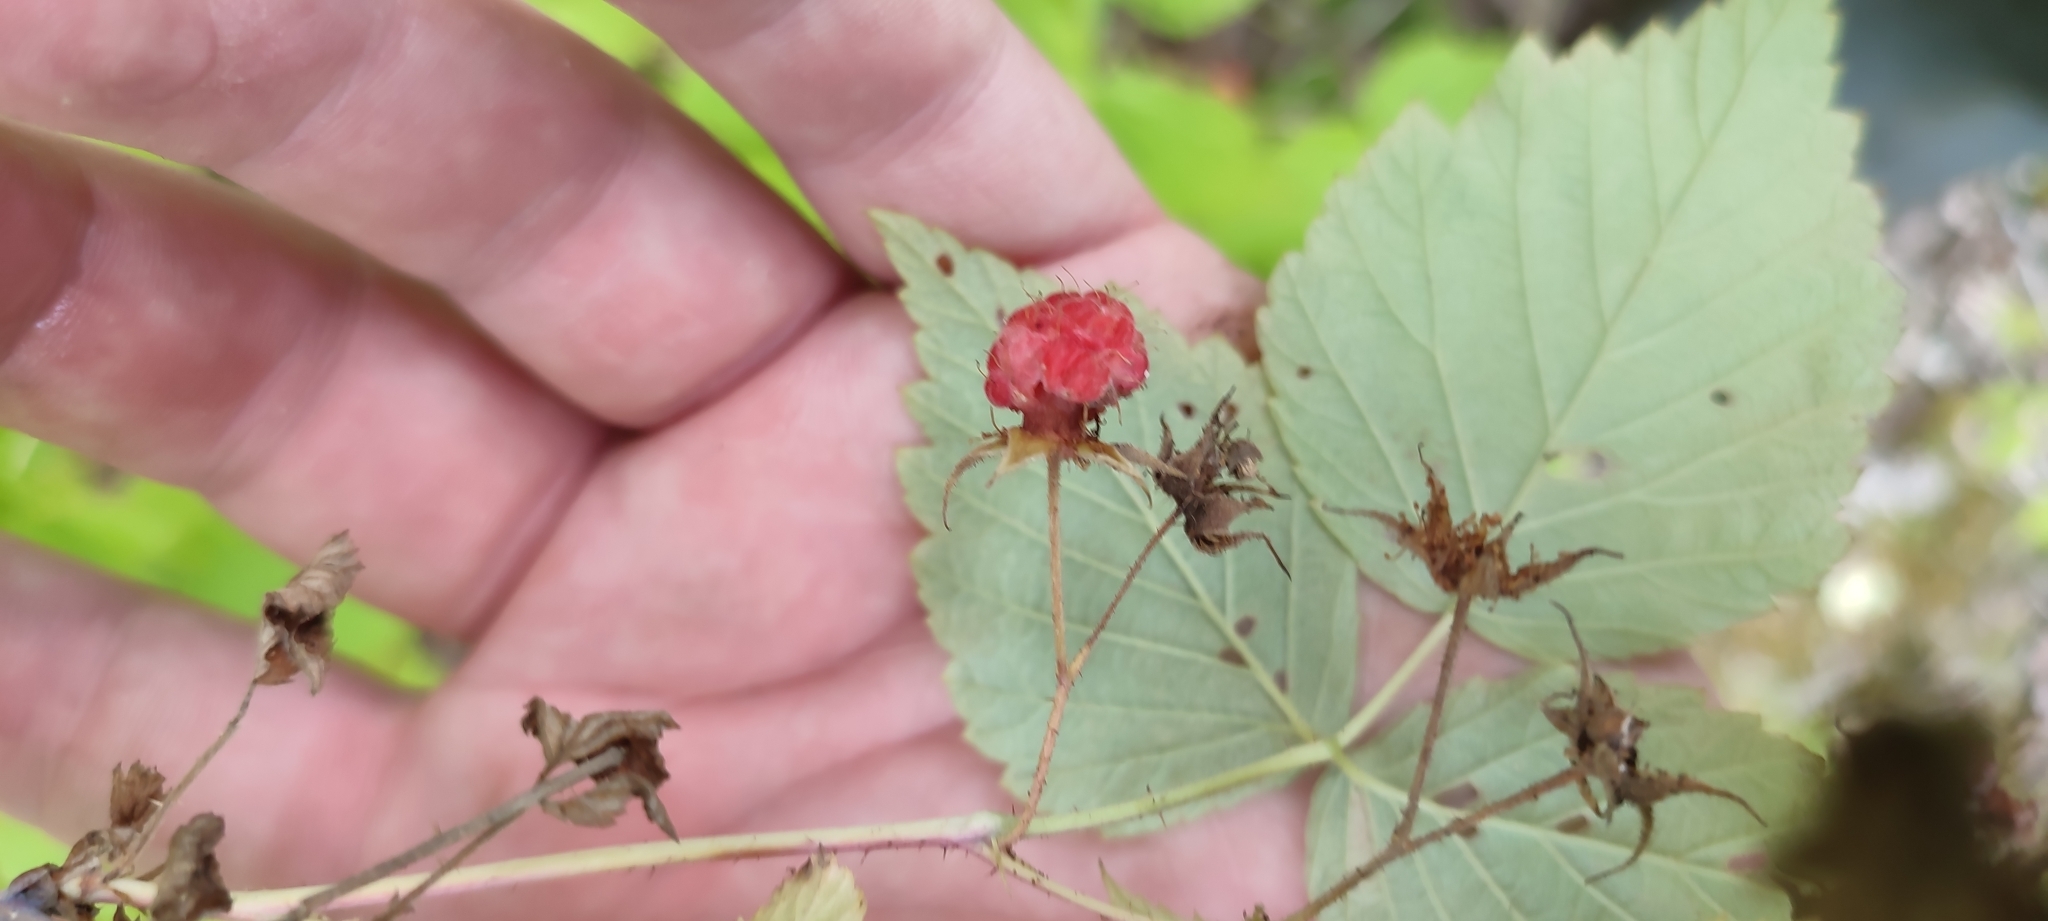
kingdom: Plantae
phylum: Tracheophyta
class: Magnoliopsida
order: Rosales
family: Rosaceae
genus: Rubus
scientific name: Rubus sachalinensis
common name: Red raspberry
